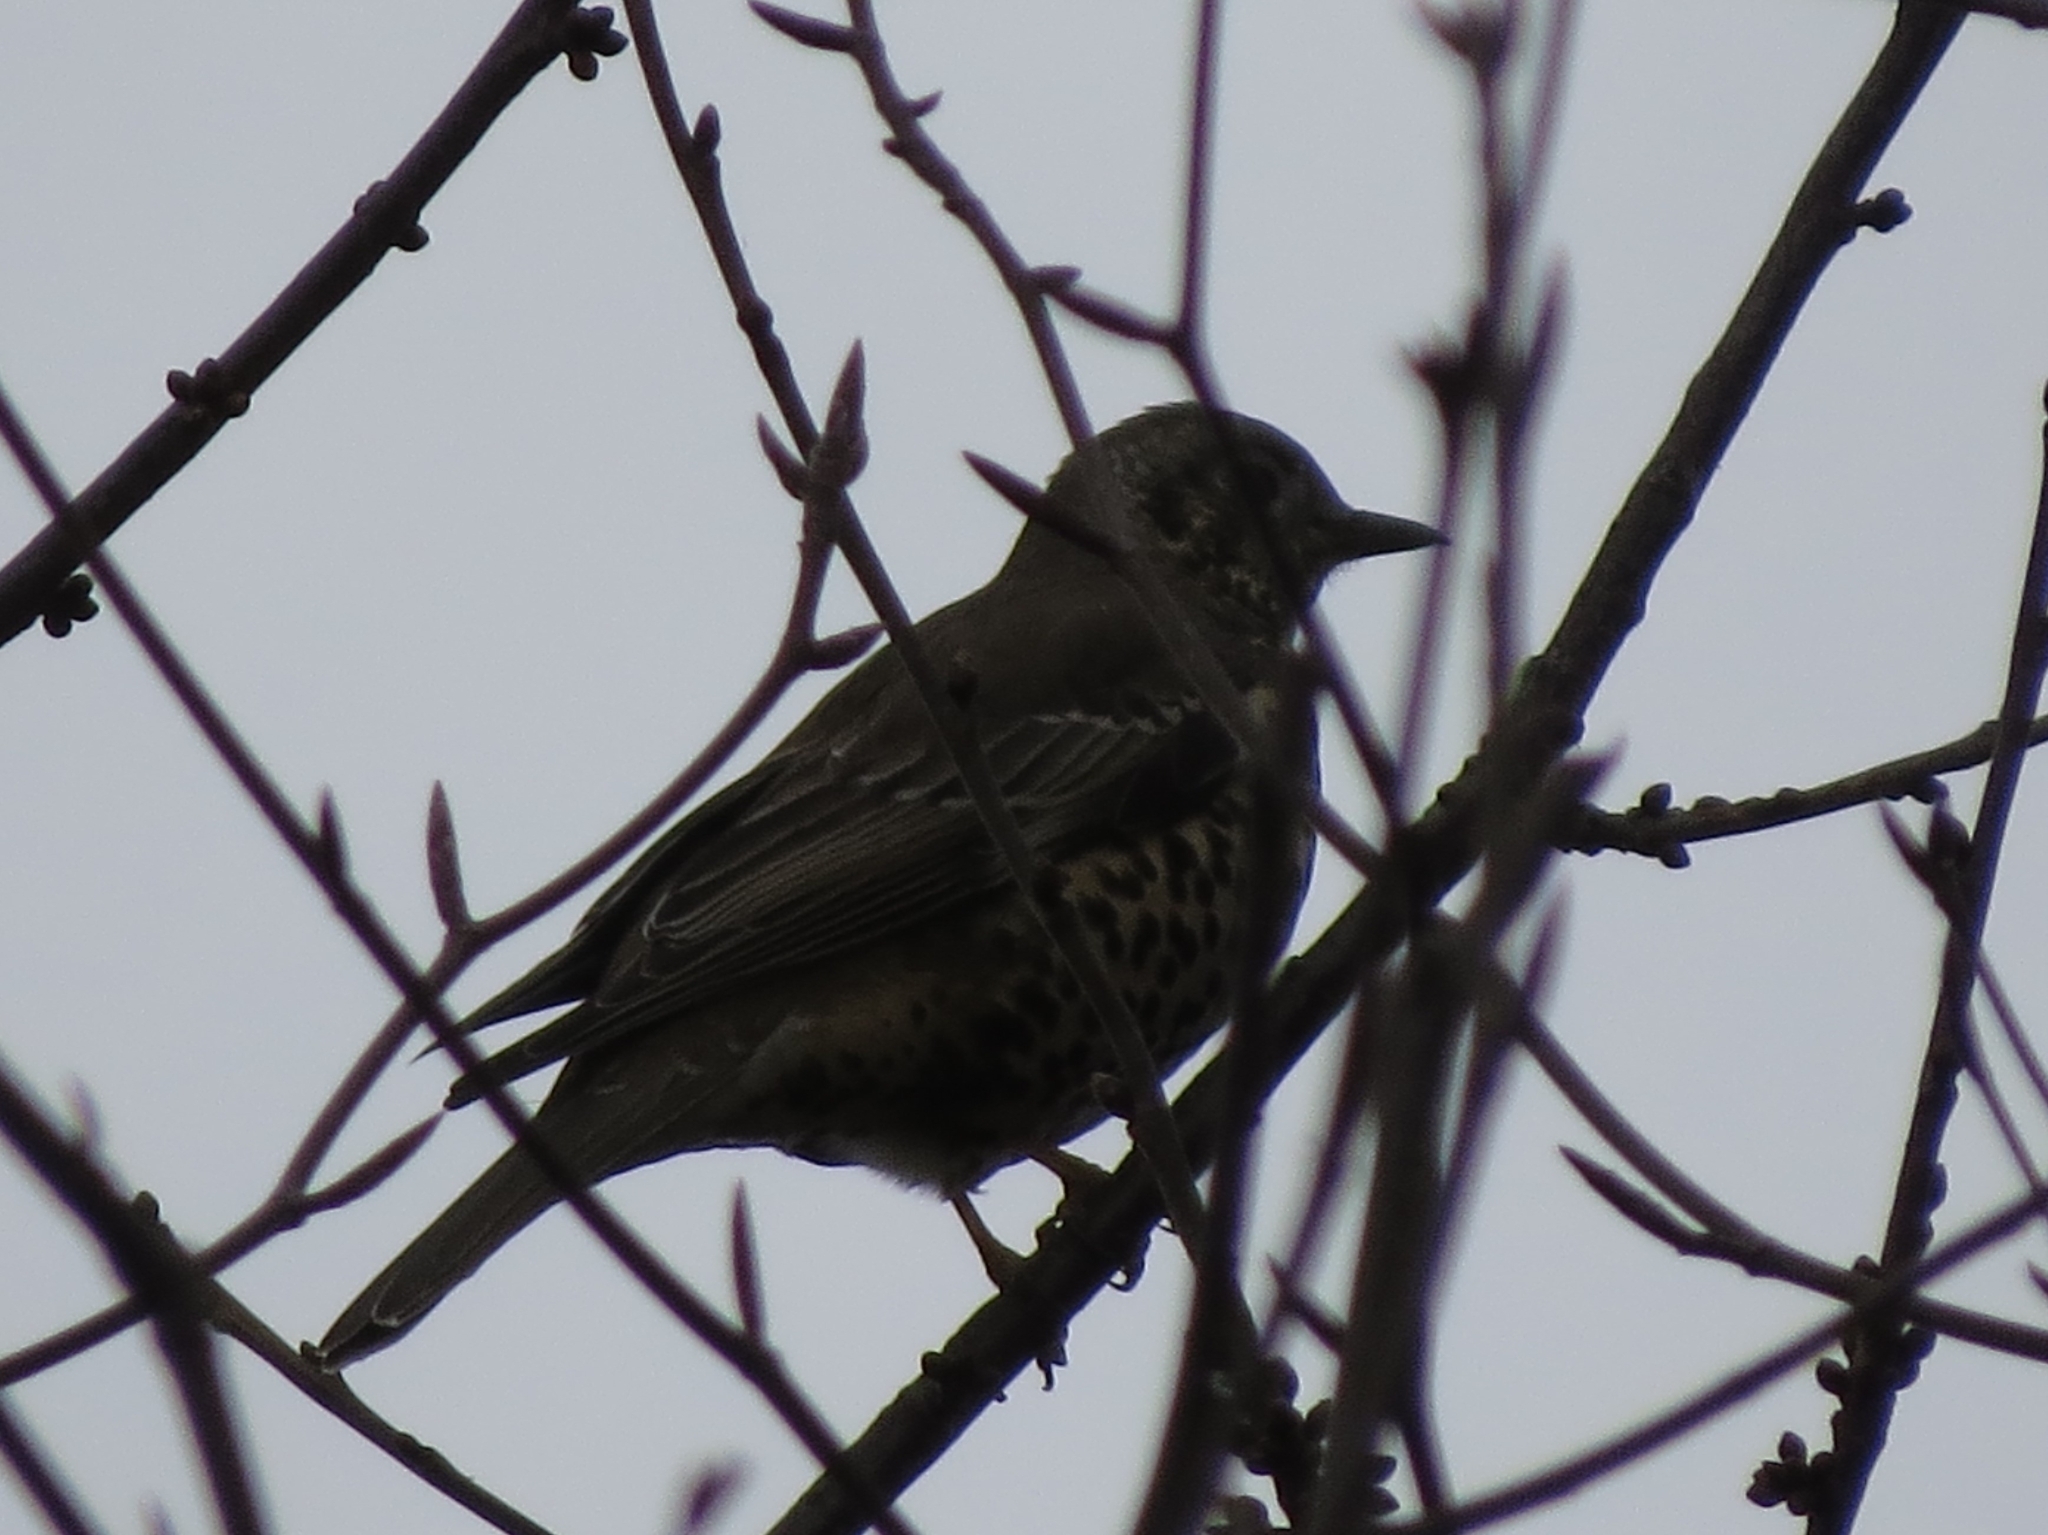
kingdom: Animalia
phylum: Chordata
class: Aves
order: Passeriformes
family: Turdidae
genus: Turdus
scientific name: Turdus viscivorus
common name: Mistle thrush
